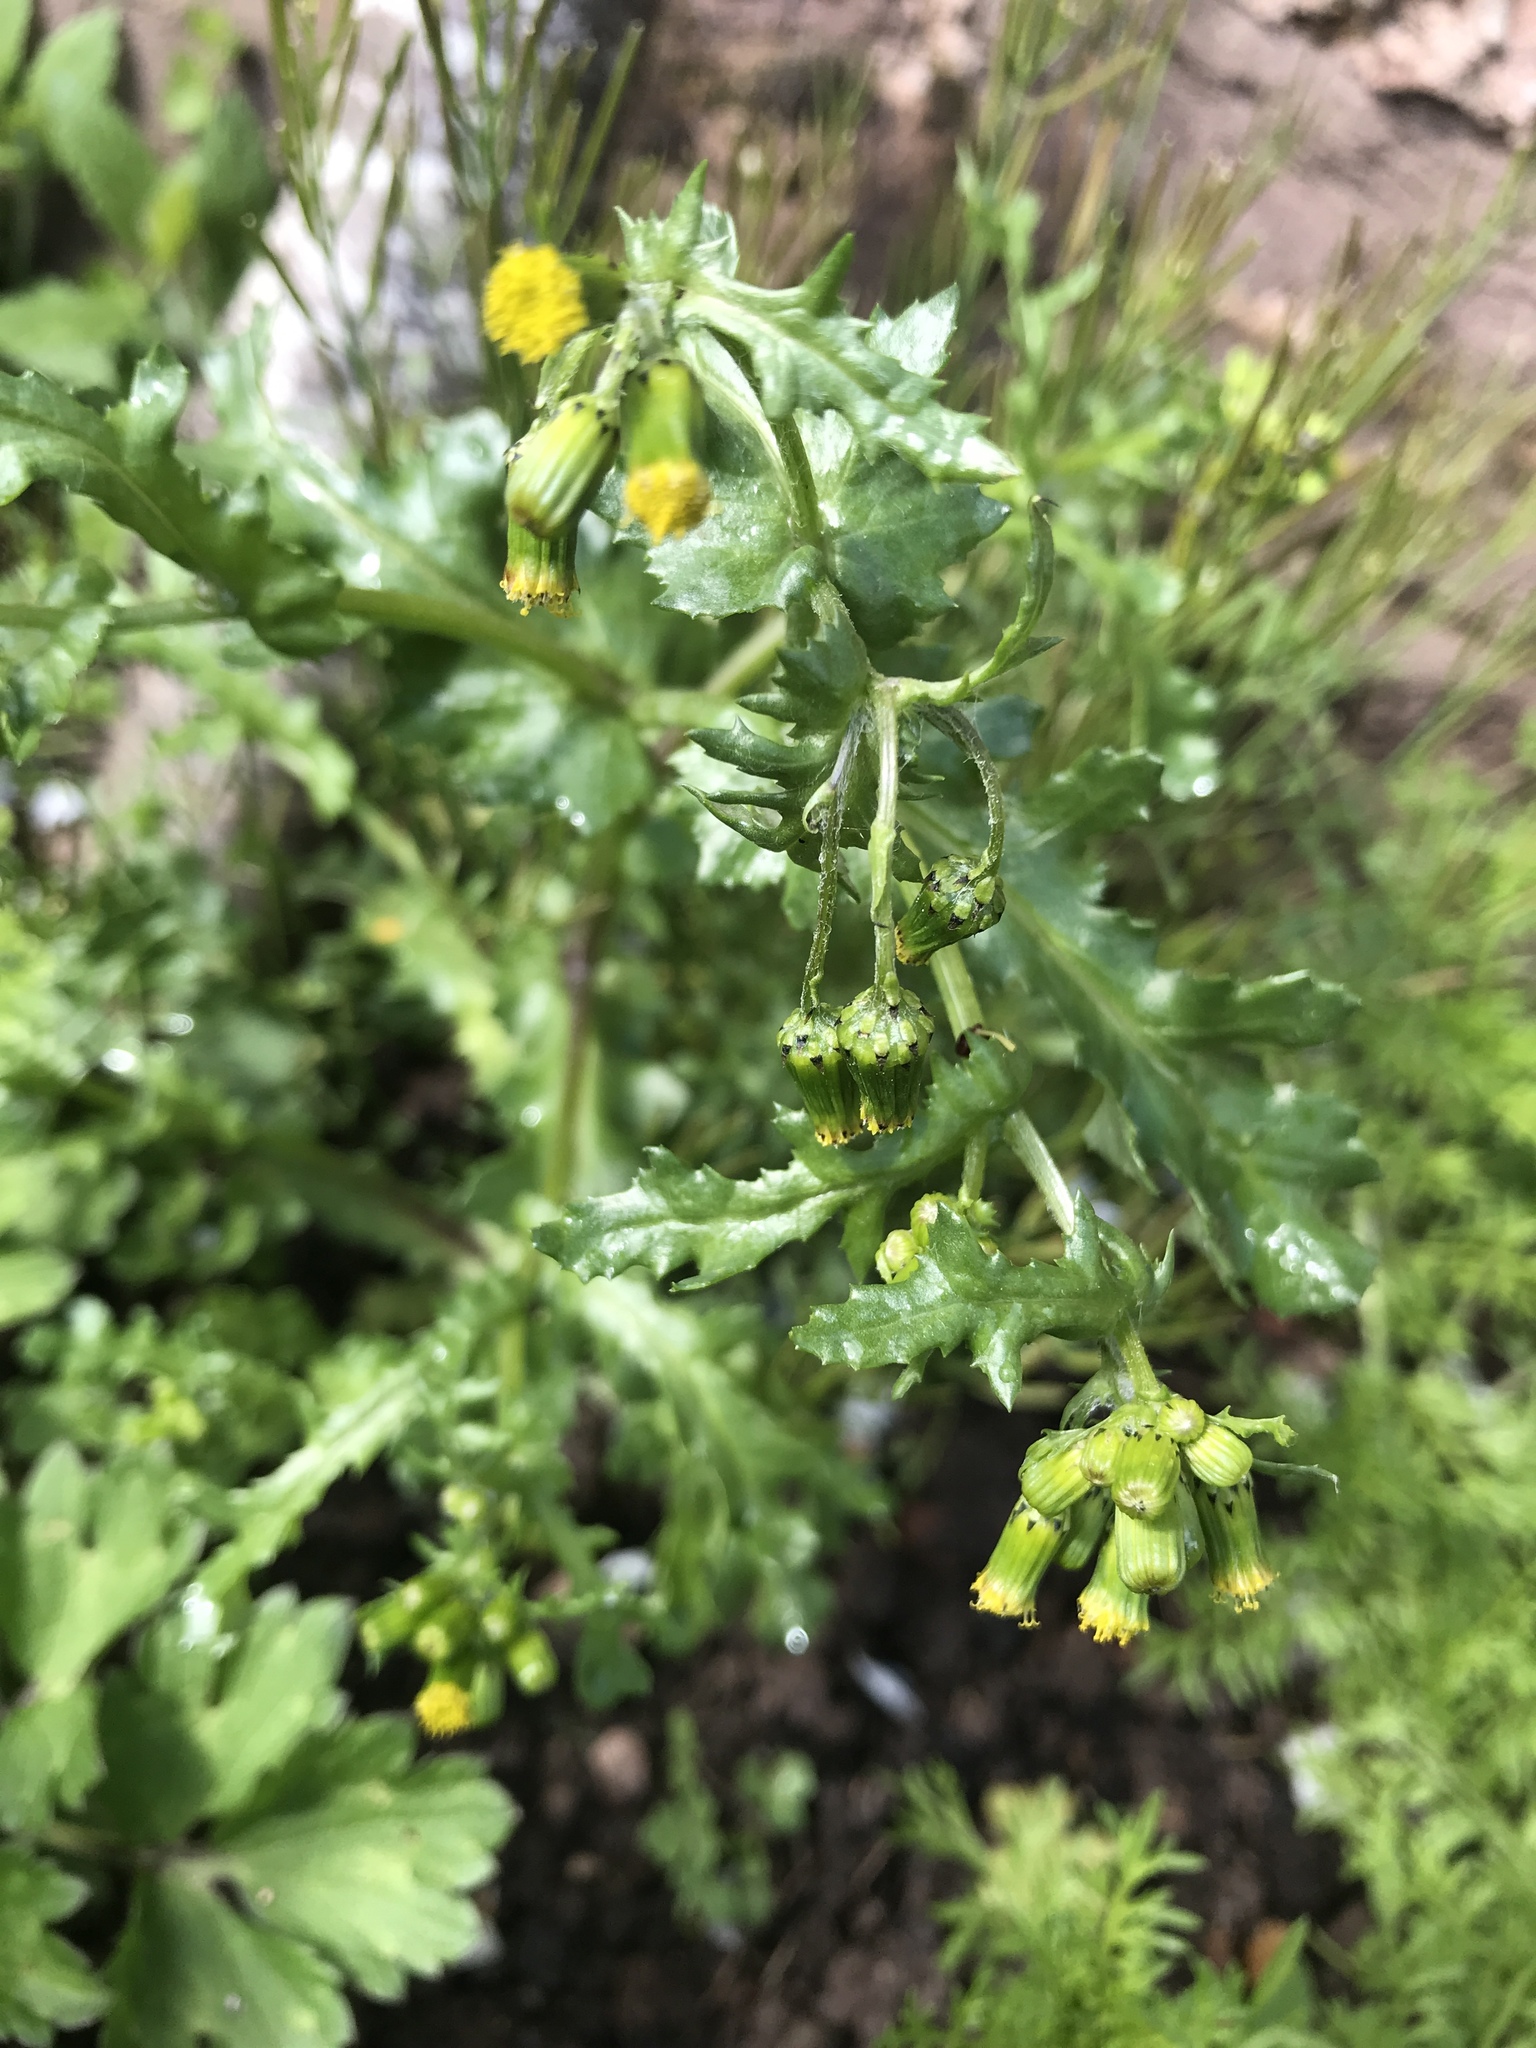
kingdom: Plantae
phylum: Tracheophyta
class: Magnoliopsida
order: Asterales
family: Asteraceae
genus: Senecio
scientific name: Senecio vulgaris
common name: Old-man-in-the-spring
